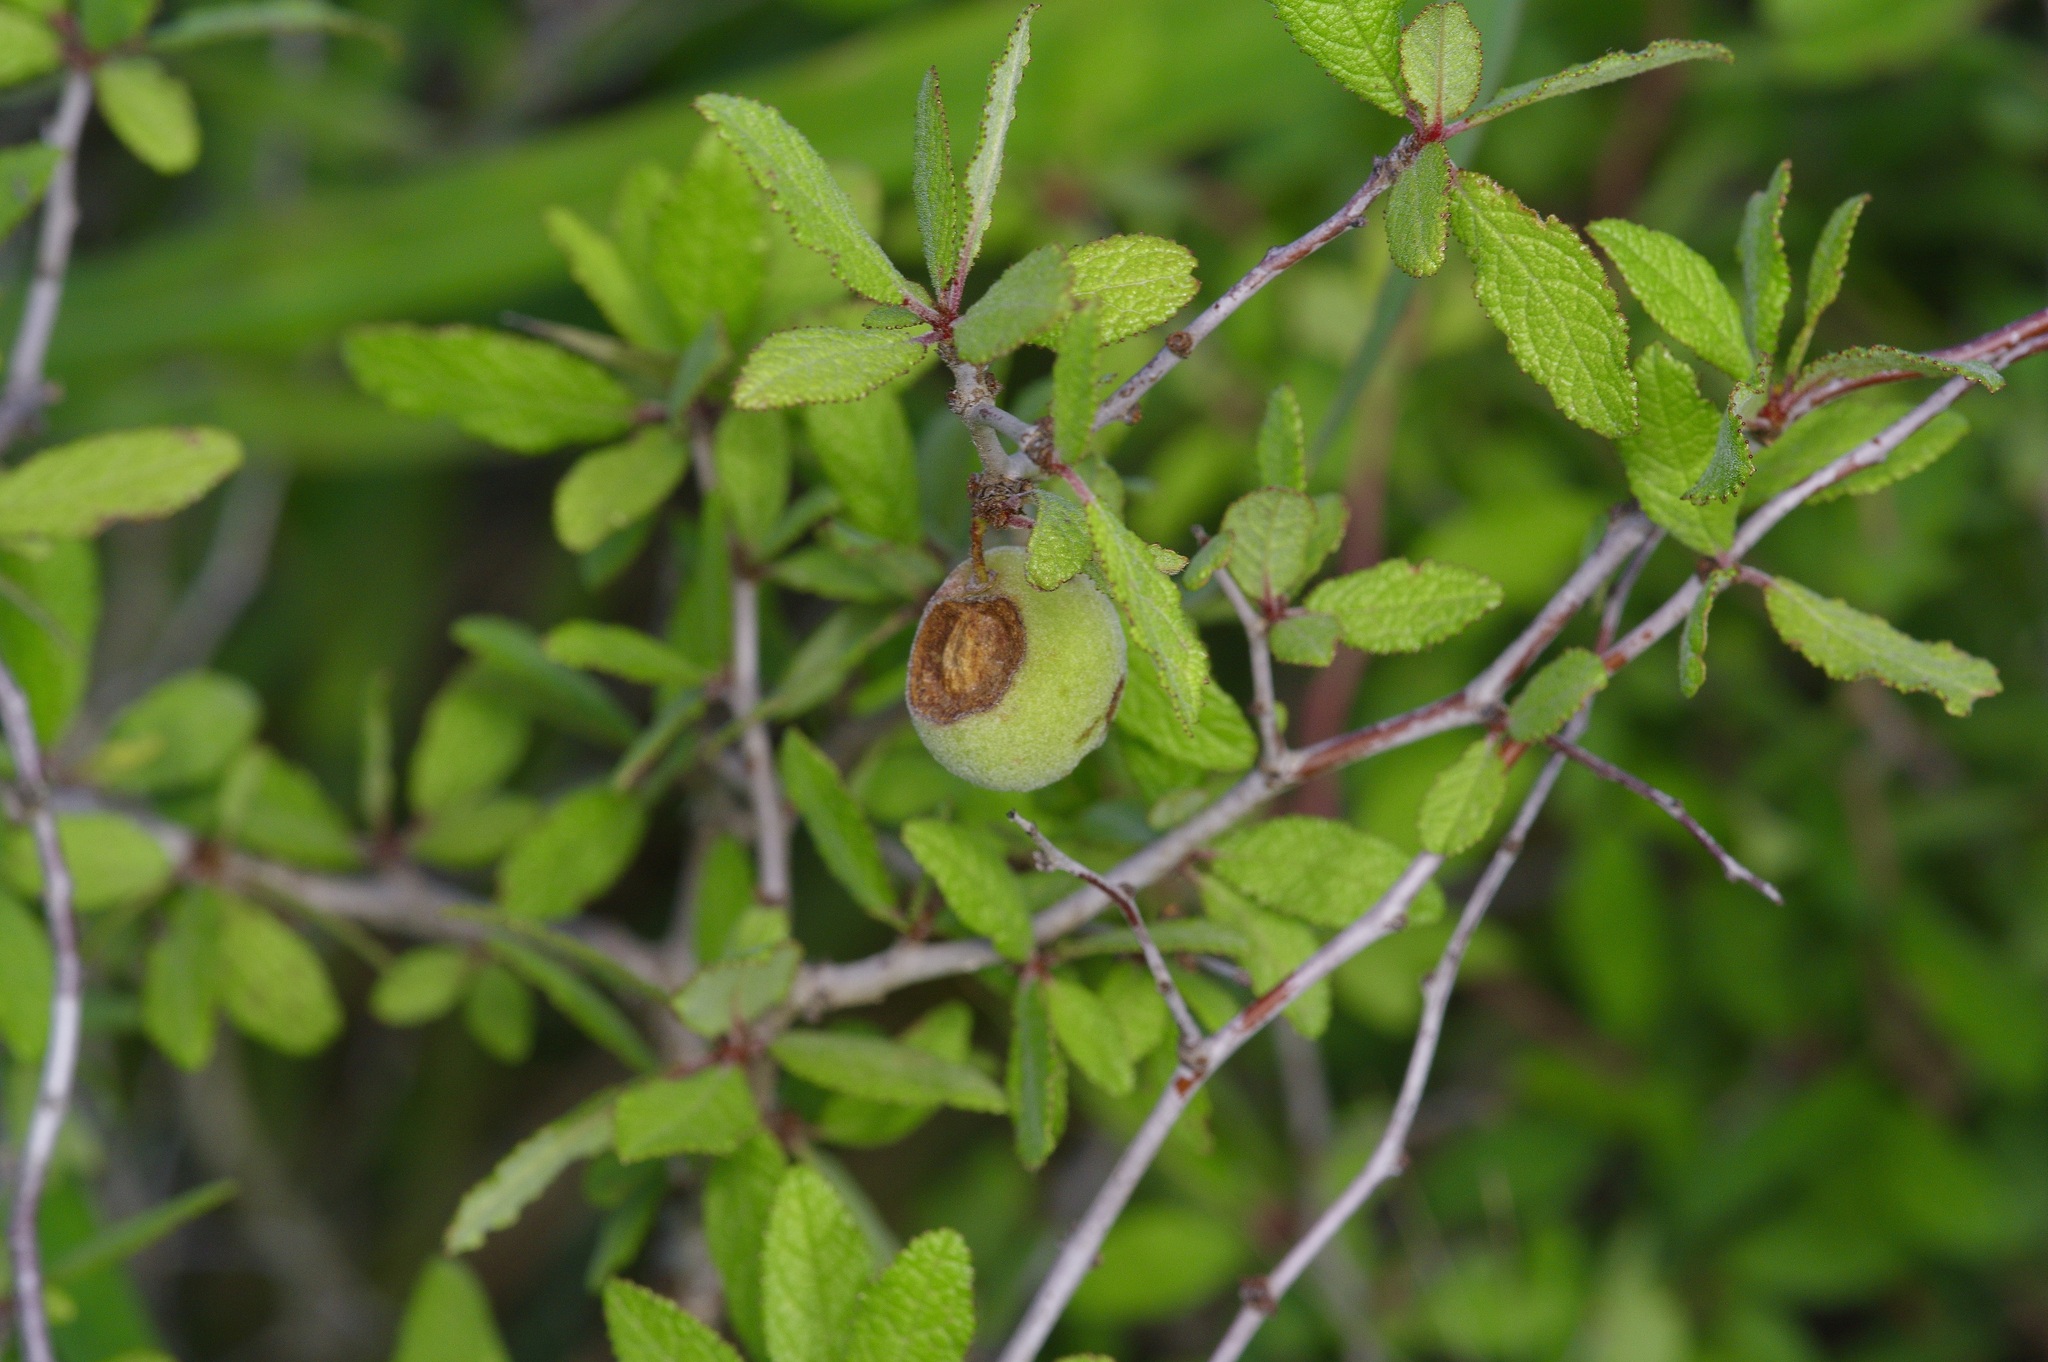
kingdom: Plantae
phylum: Tracheophyta
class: Magnoliopsida
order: Rosales
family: Rosaceae
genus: Prunus
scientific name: Prunus texana
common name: Texas almond cherry
